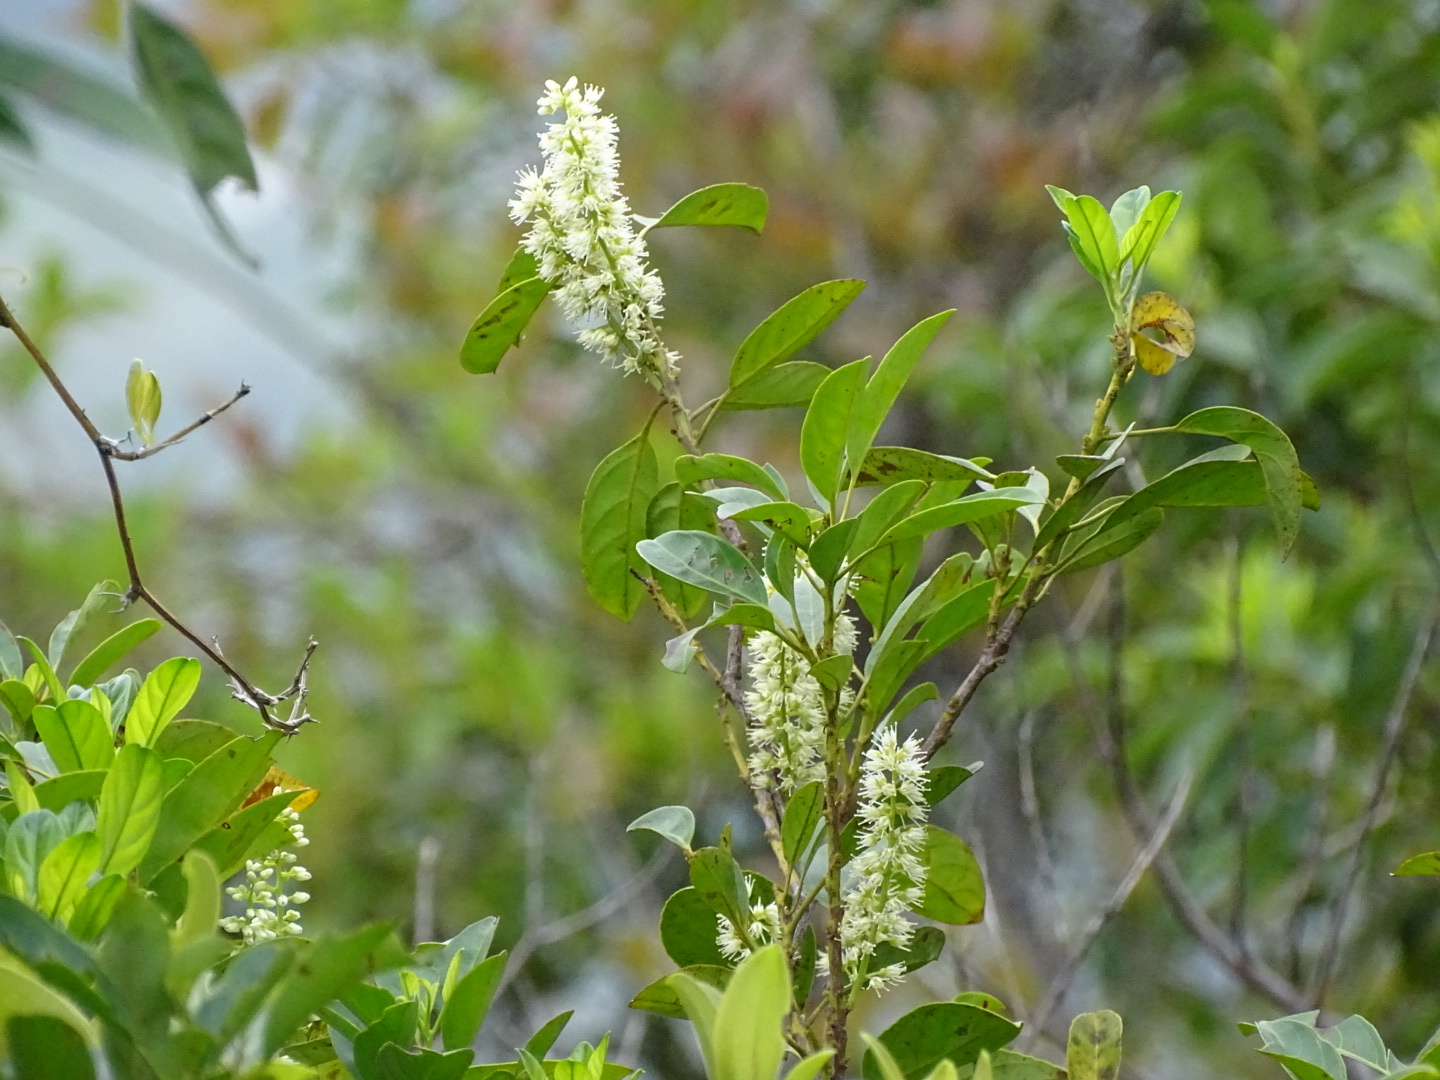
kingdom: Plantae
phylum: Tracheophyta
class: Magnoliopsida
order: Saxifragales
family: Iteaceae
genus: Itea
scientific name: Itea chinensis
